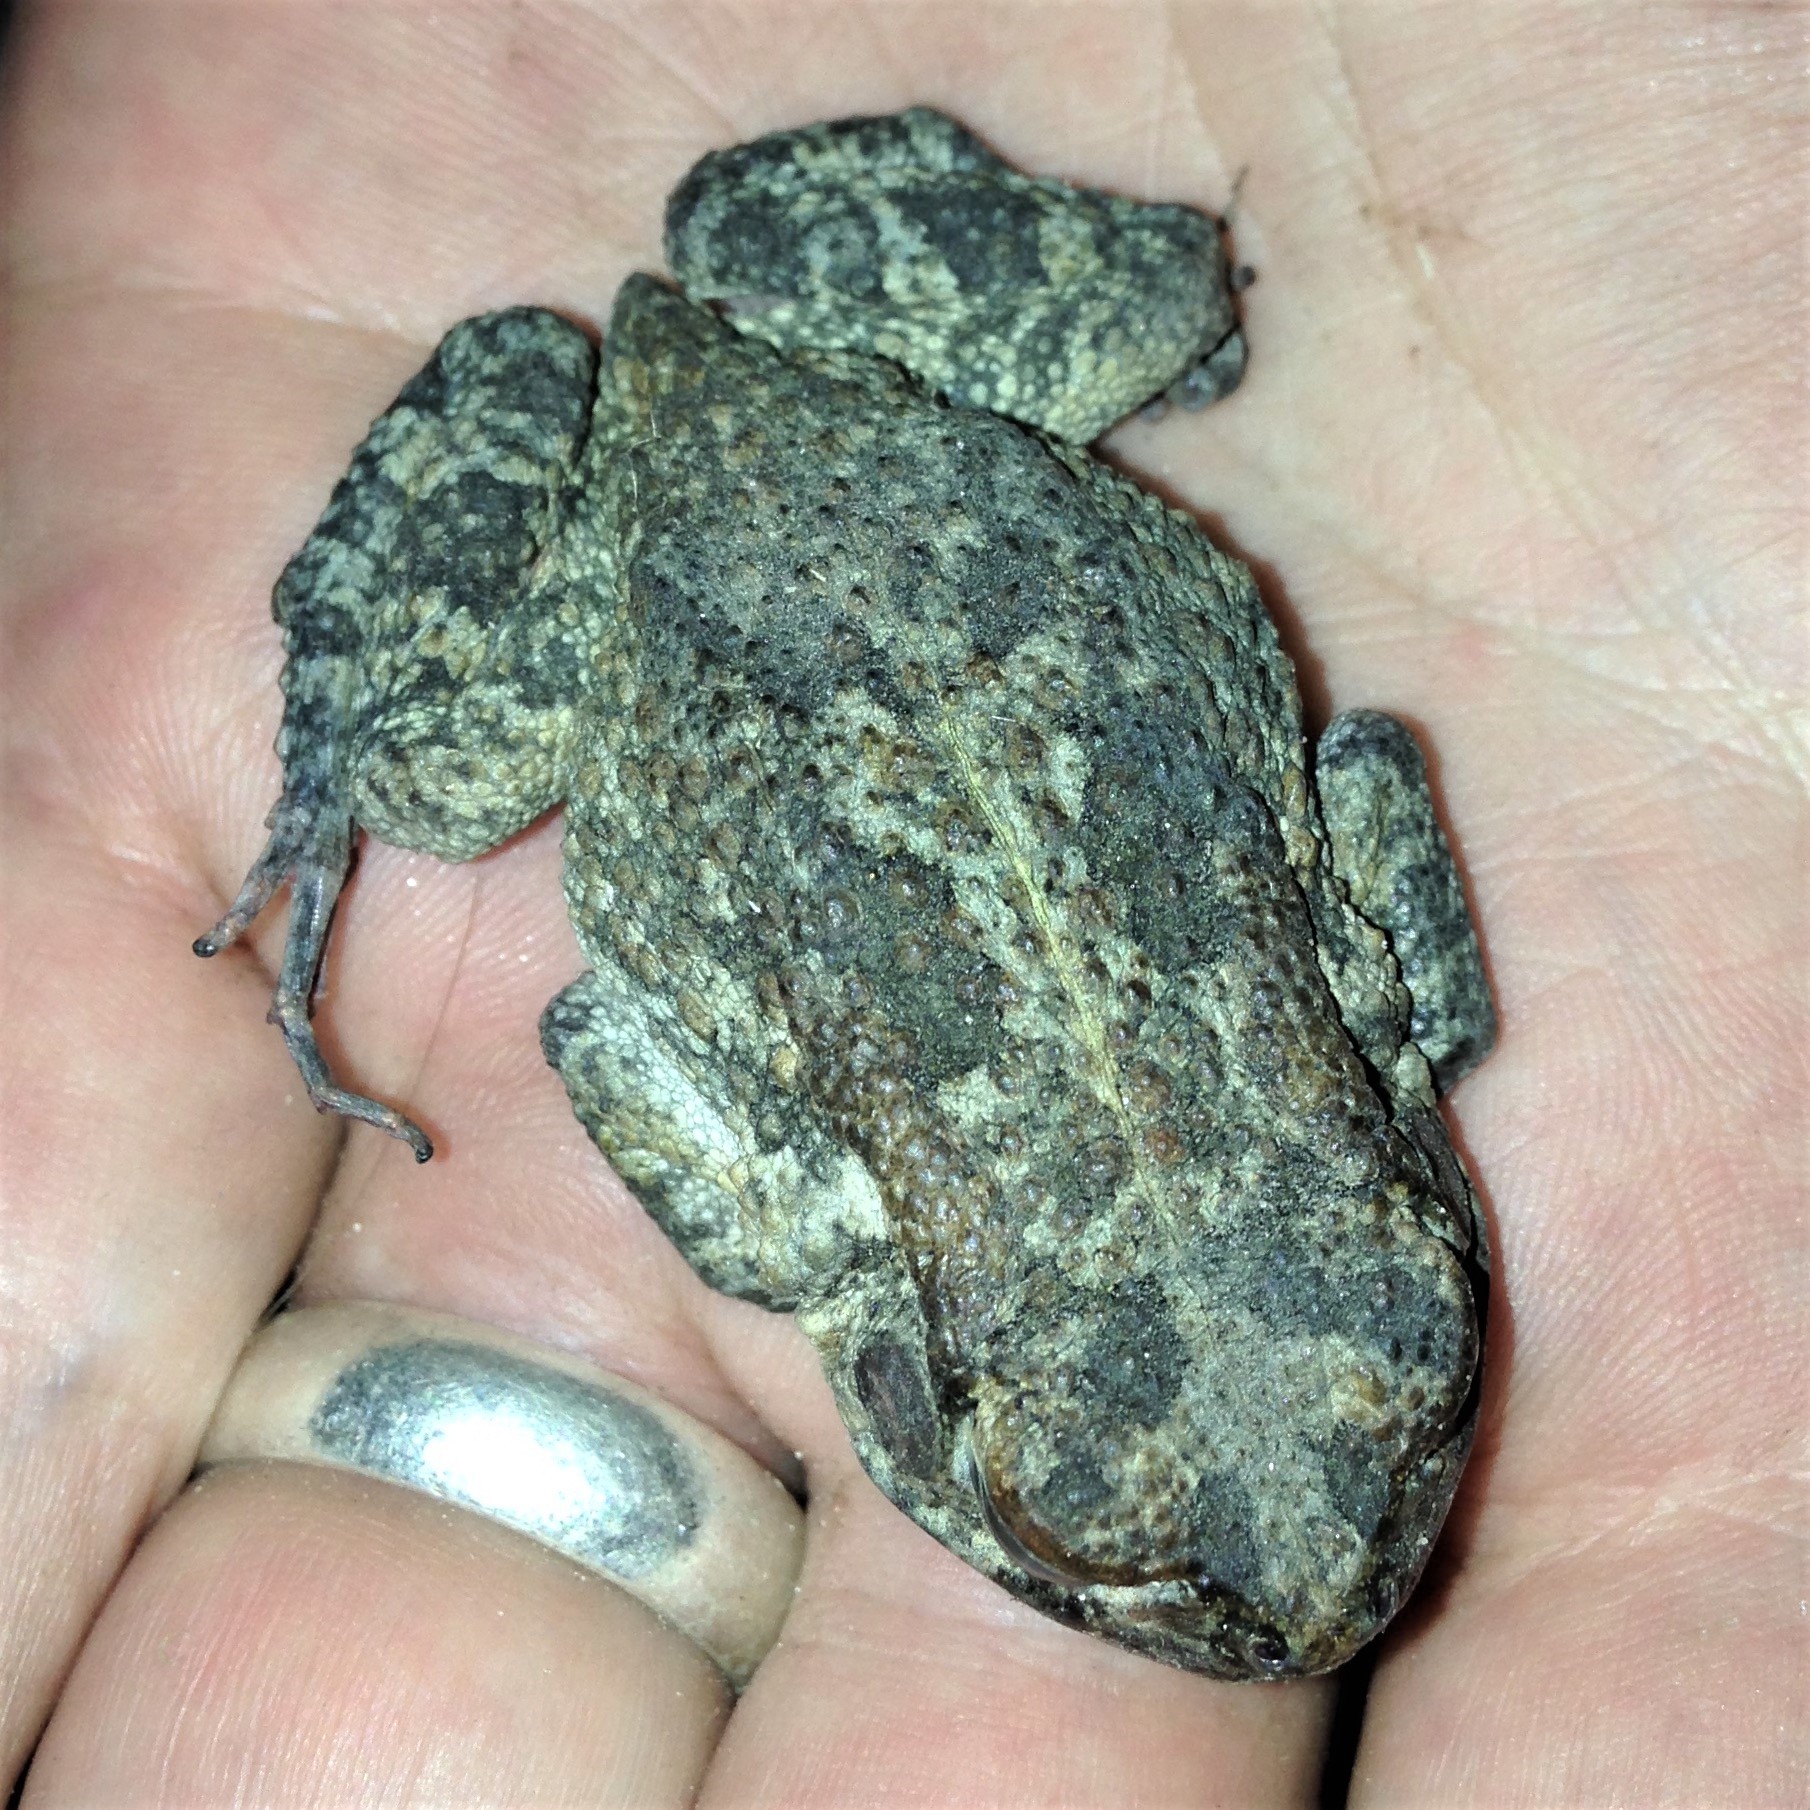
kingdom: Animalia
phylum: Chordata
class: Amphibia
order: Anura
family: Bufonidae
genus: Sclerophrys
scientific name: Sclerophrys gutturalis
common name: African common toad
